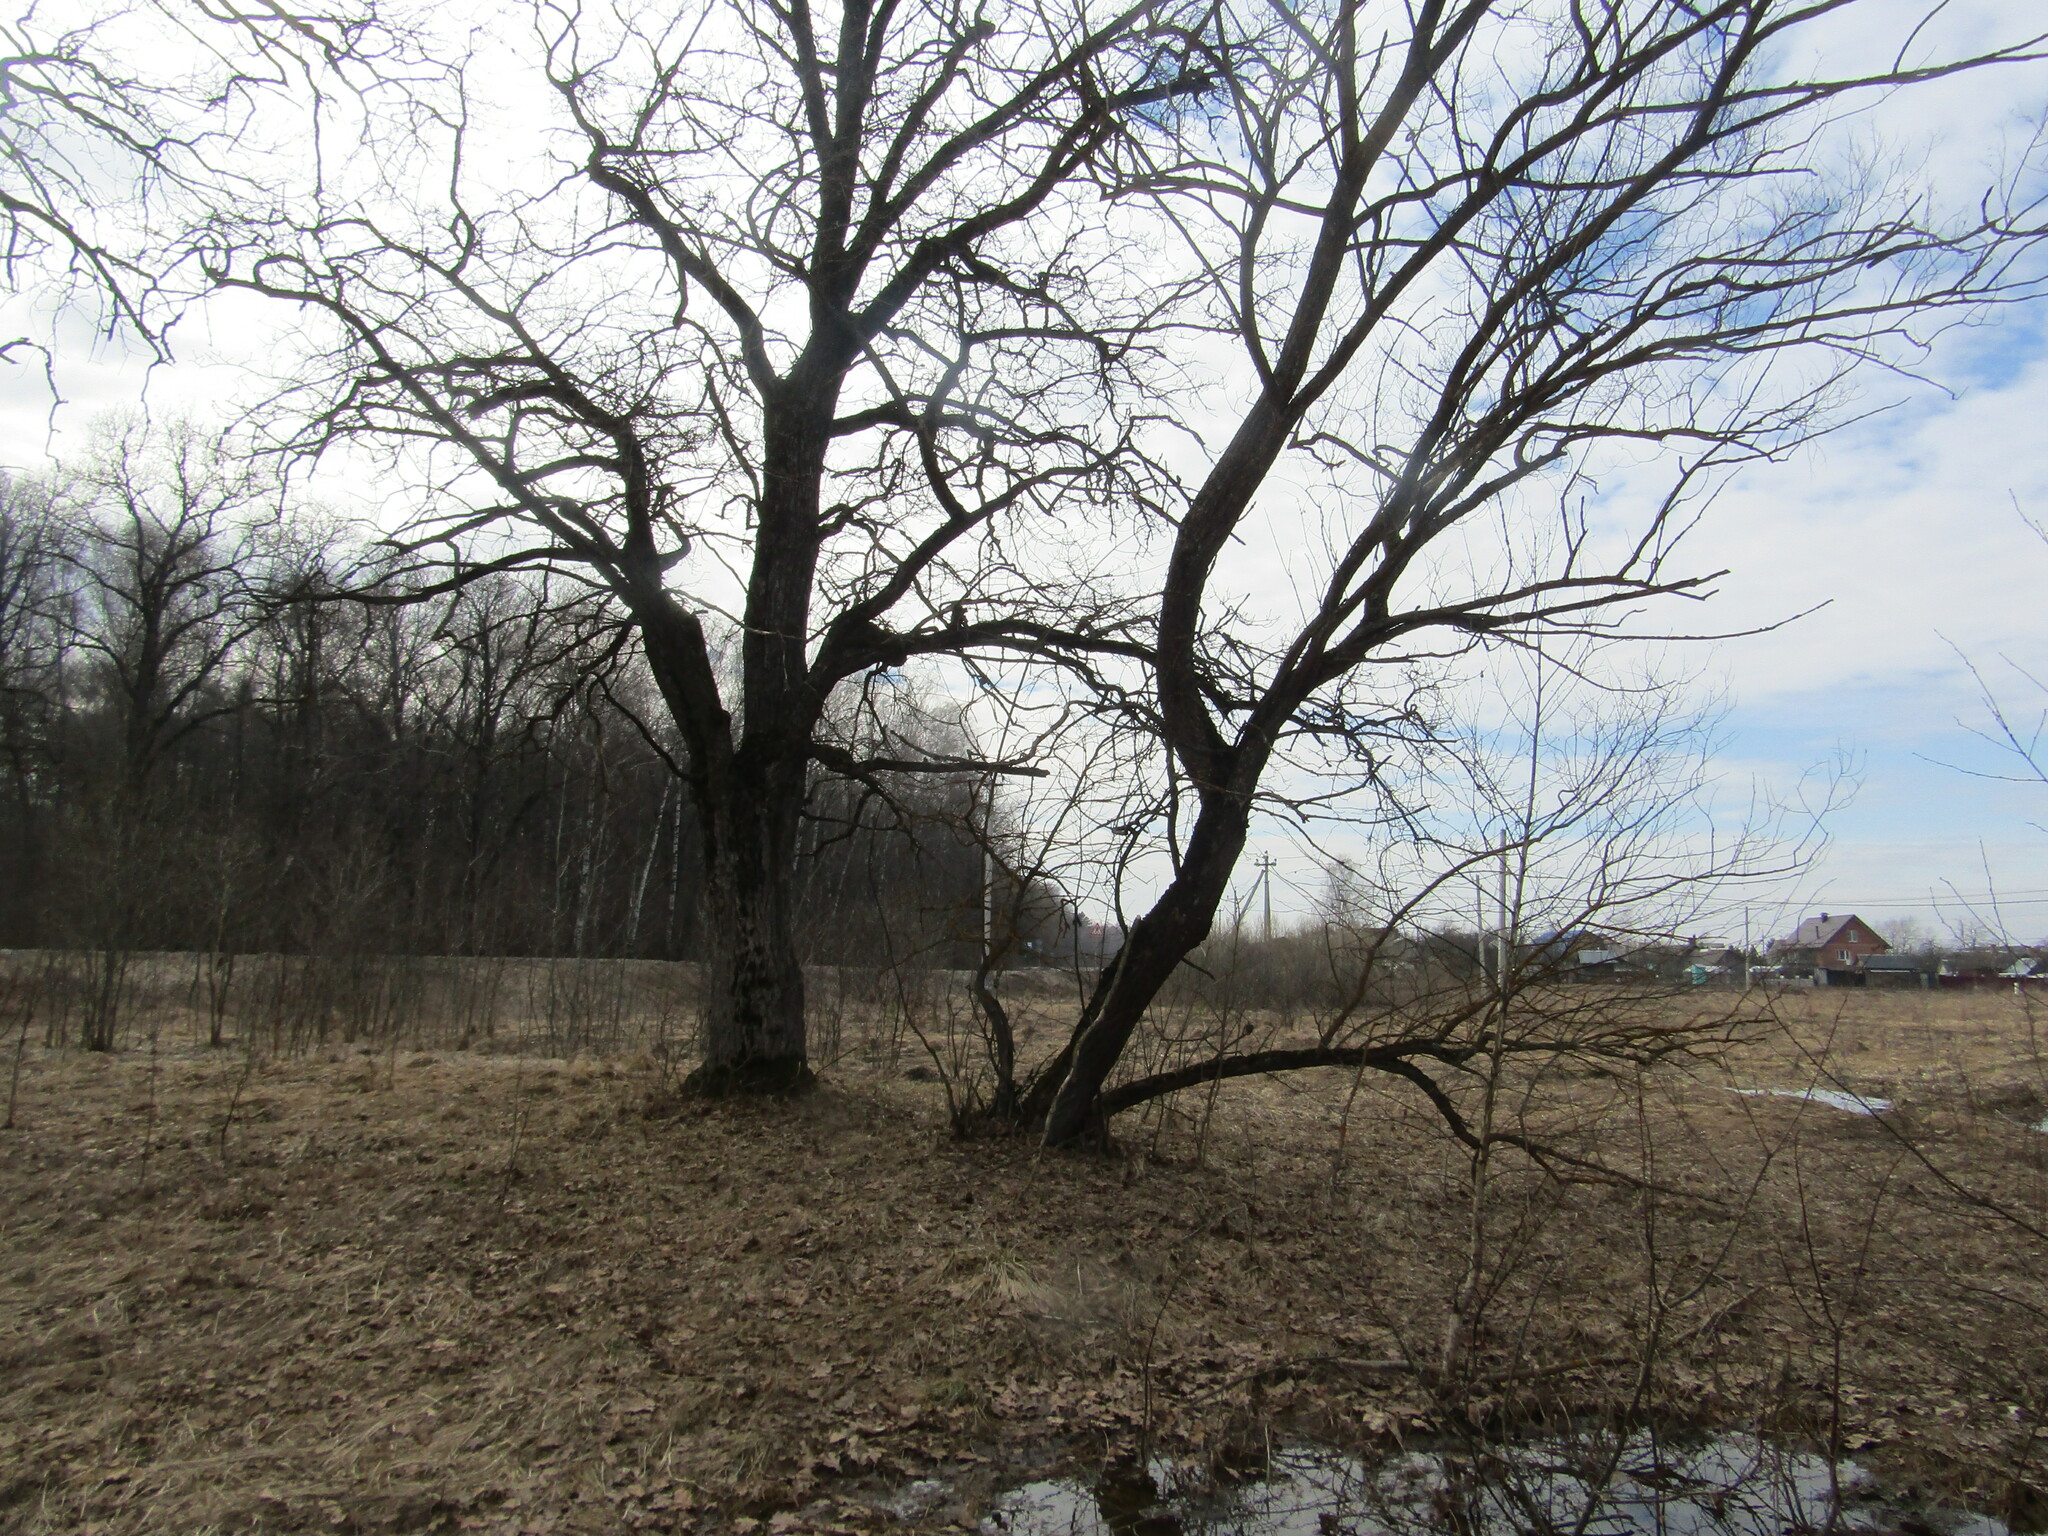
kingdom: Plantae
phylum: Tracheophyta
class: Magnoliopsida
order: Fagales
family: Fagaceae
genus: Quercus
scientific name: Quercus robur
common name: Pedunculate oak
